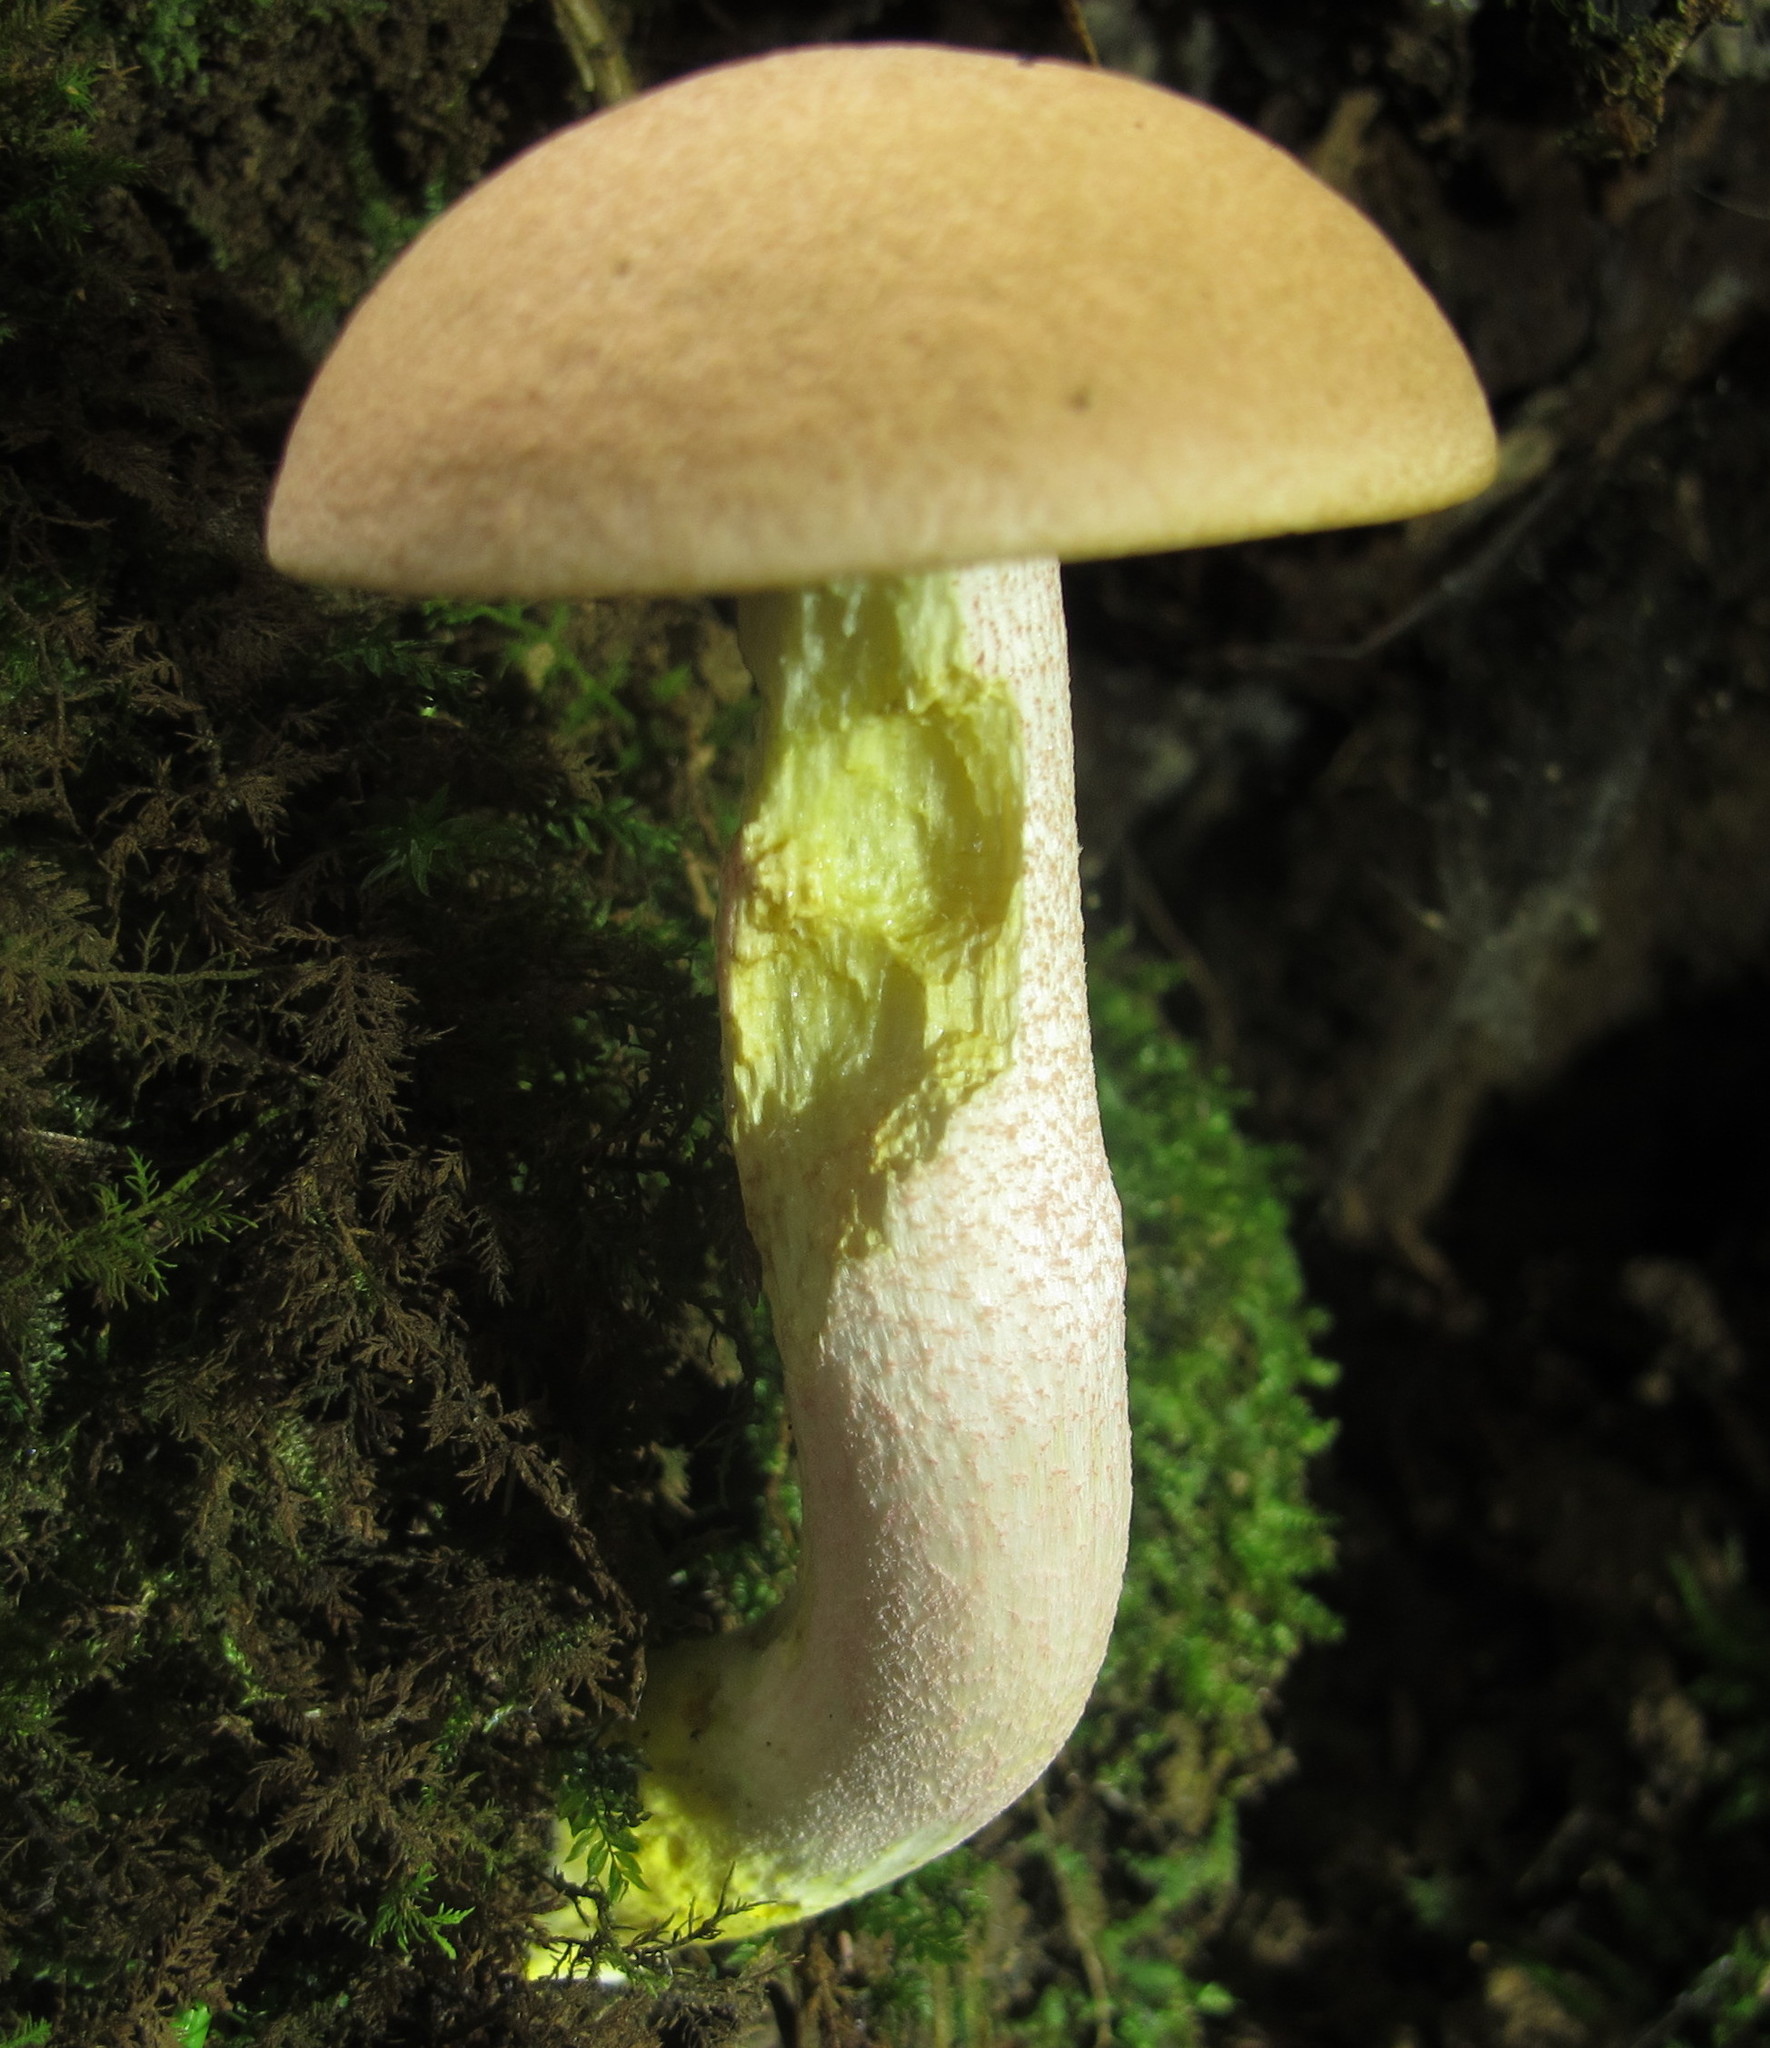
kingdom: Fungi
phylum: Basidiomycota
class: Agaricomycetes
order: Boletales
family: Boletaceae
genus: Harrya
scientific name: Harrya chromipes
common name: Chrome-footed bolete
